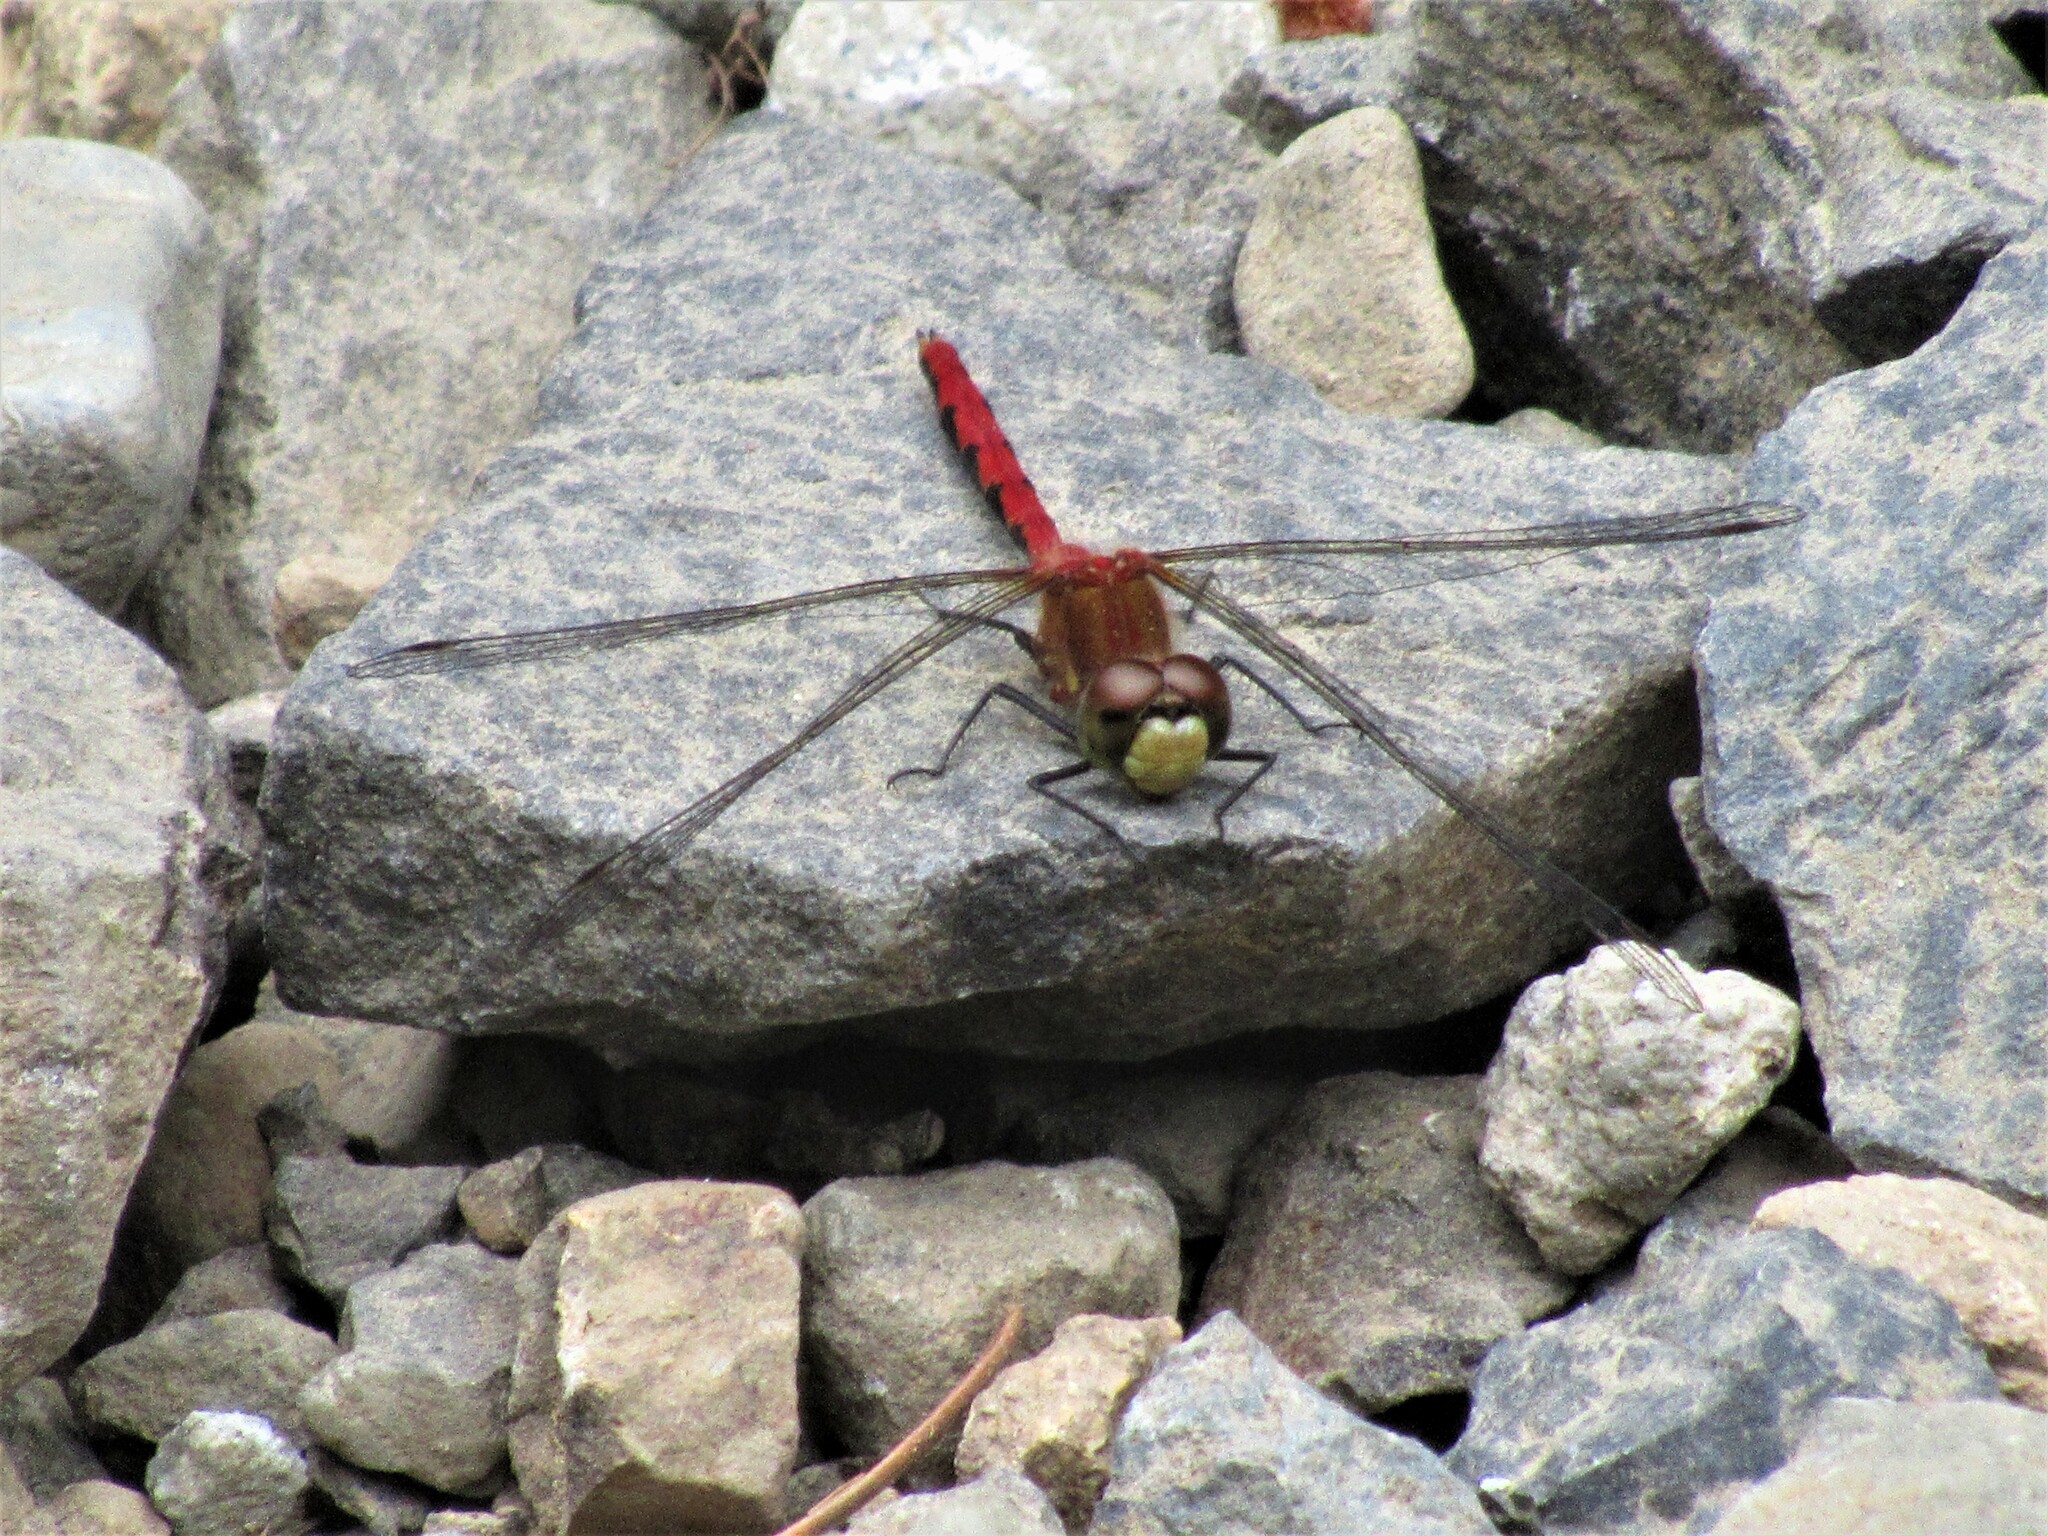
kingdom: Animalia
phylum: Arthropoda
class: Insecta
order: Odonata
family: Libellulidae
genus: Sympetrum
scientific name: Sympetrum obtrusum
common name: White-faced meadowhawk
